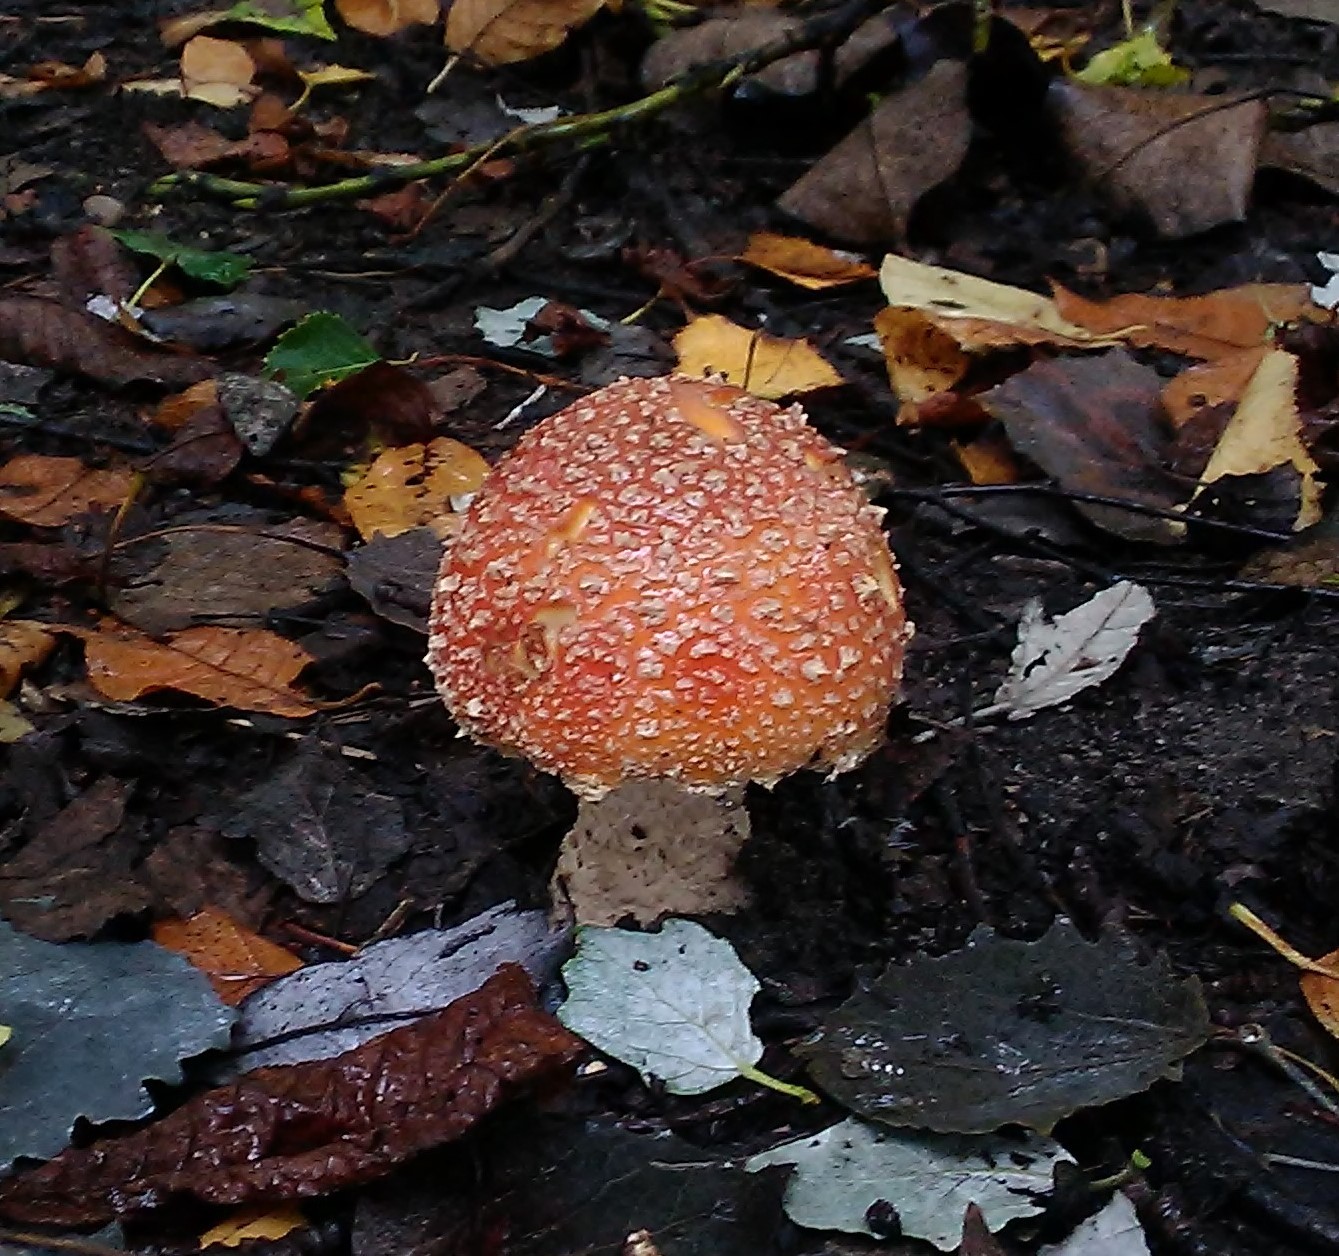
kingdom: Fungi
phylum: Basidiomycota
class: Agaricomycetes
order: Agaricales
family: Amanitaceae
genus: Amanita
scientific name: Amanita muscaria
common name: Fly agaric
